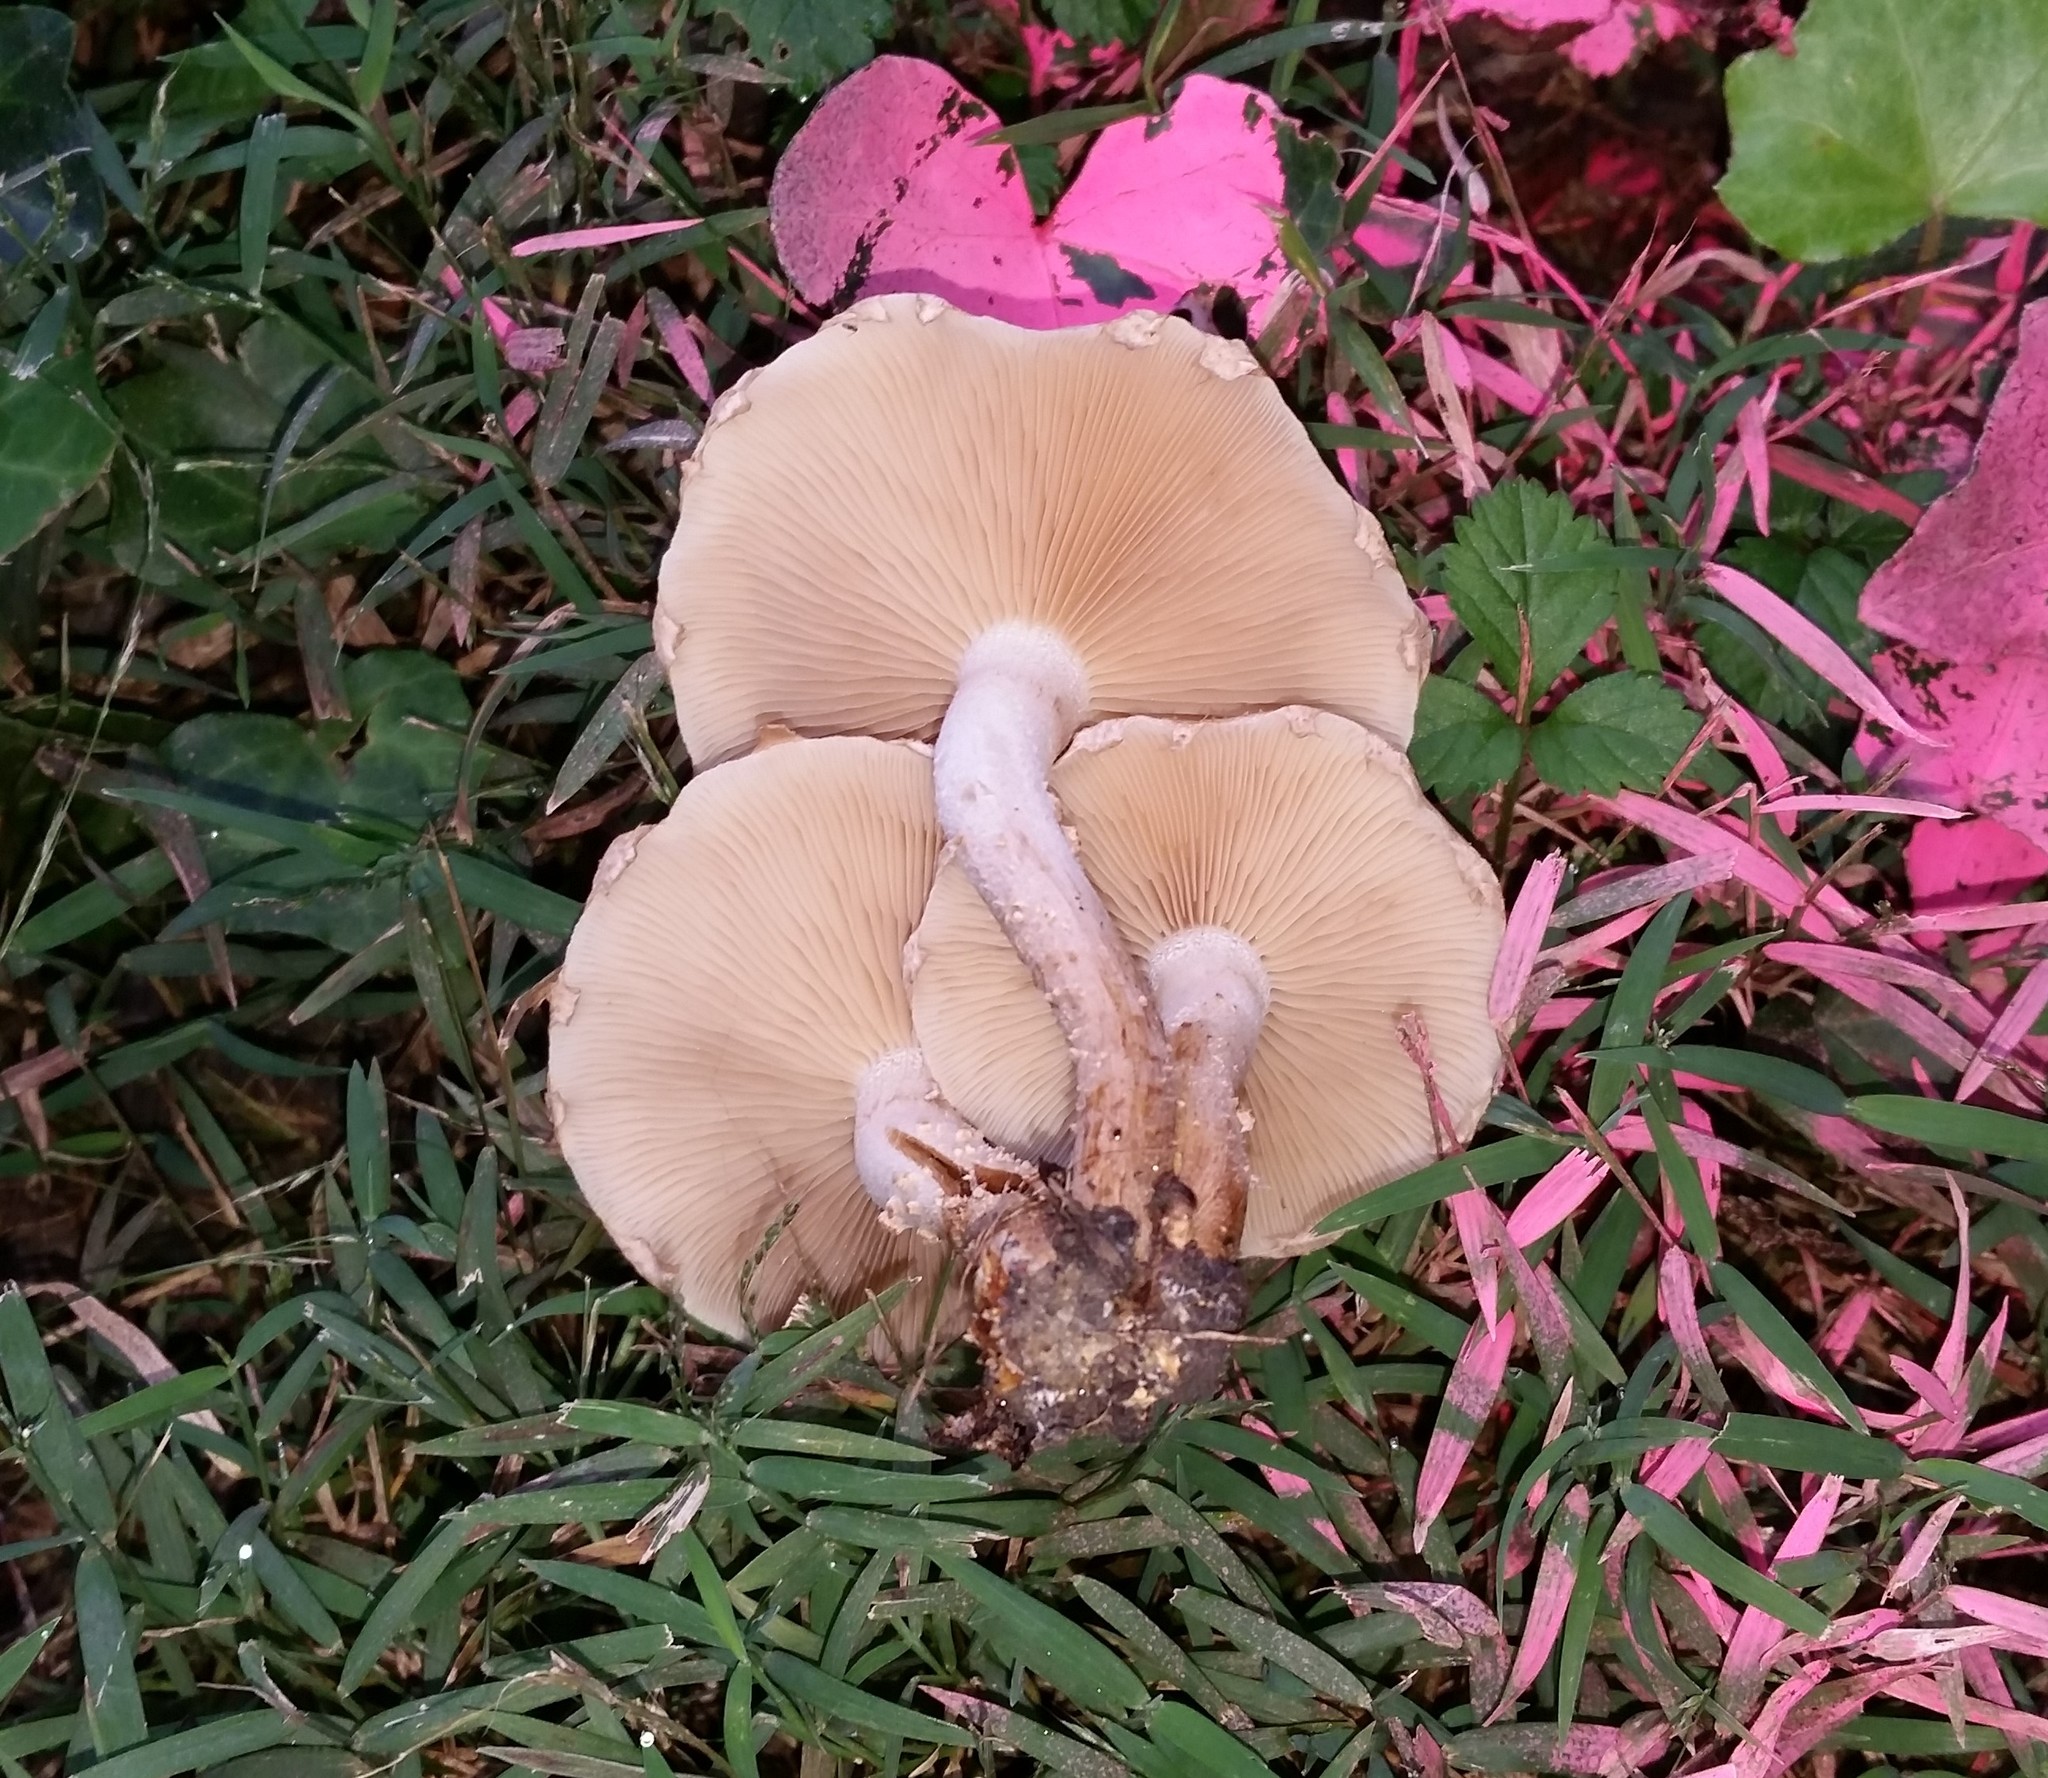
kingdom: Fungi
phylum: Basidiomycota
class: Agaricomycetes
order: Agaricales
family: Strophariaceae
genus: Pholiota
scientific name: Pholiota angustipes
